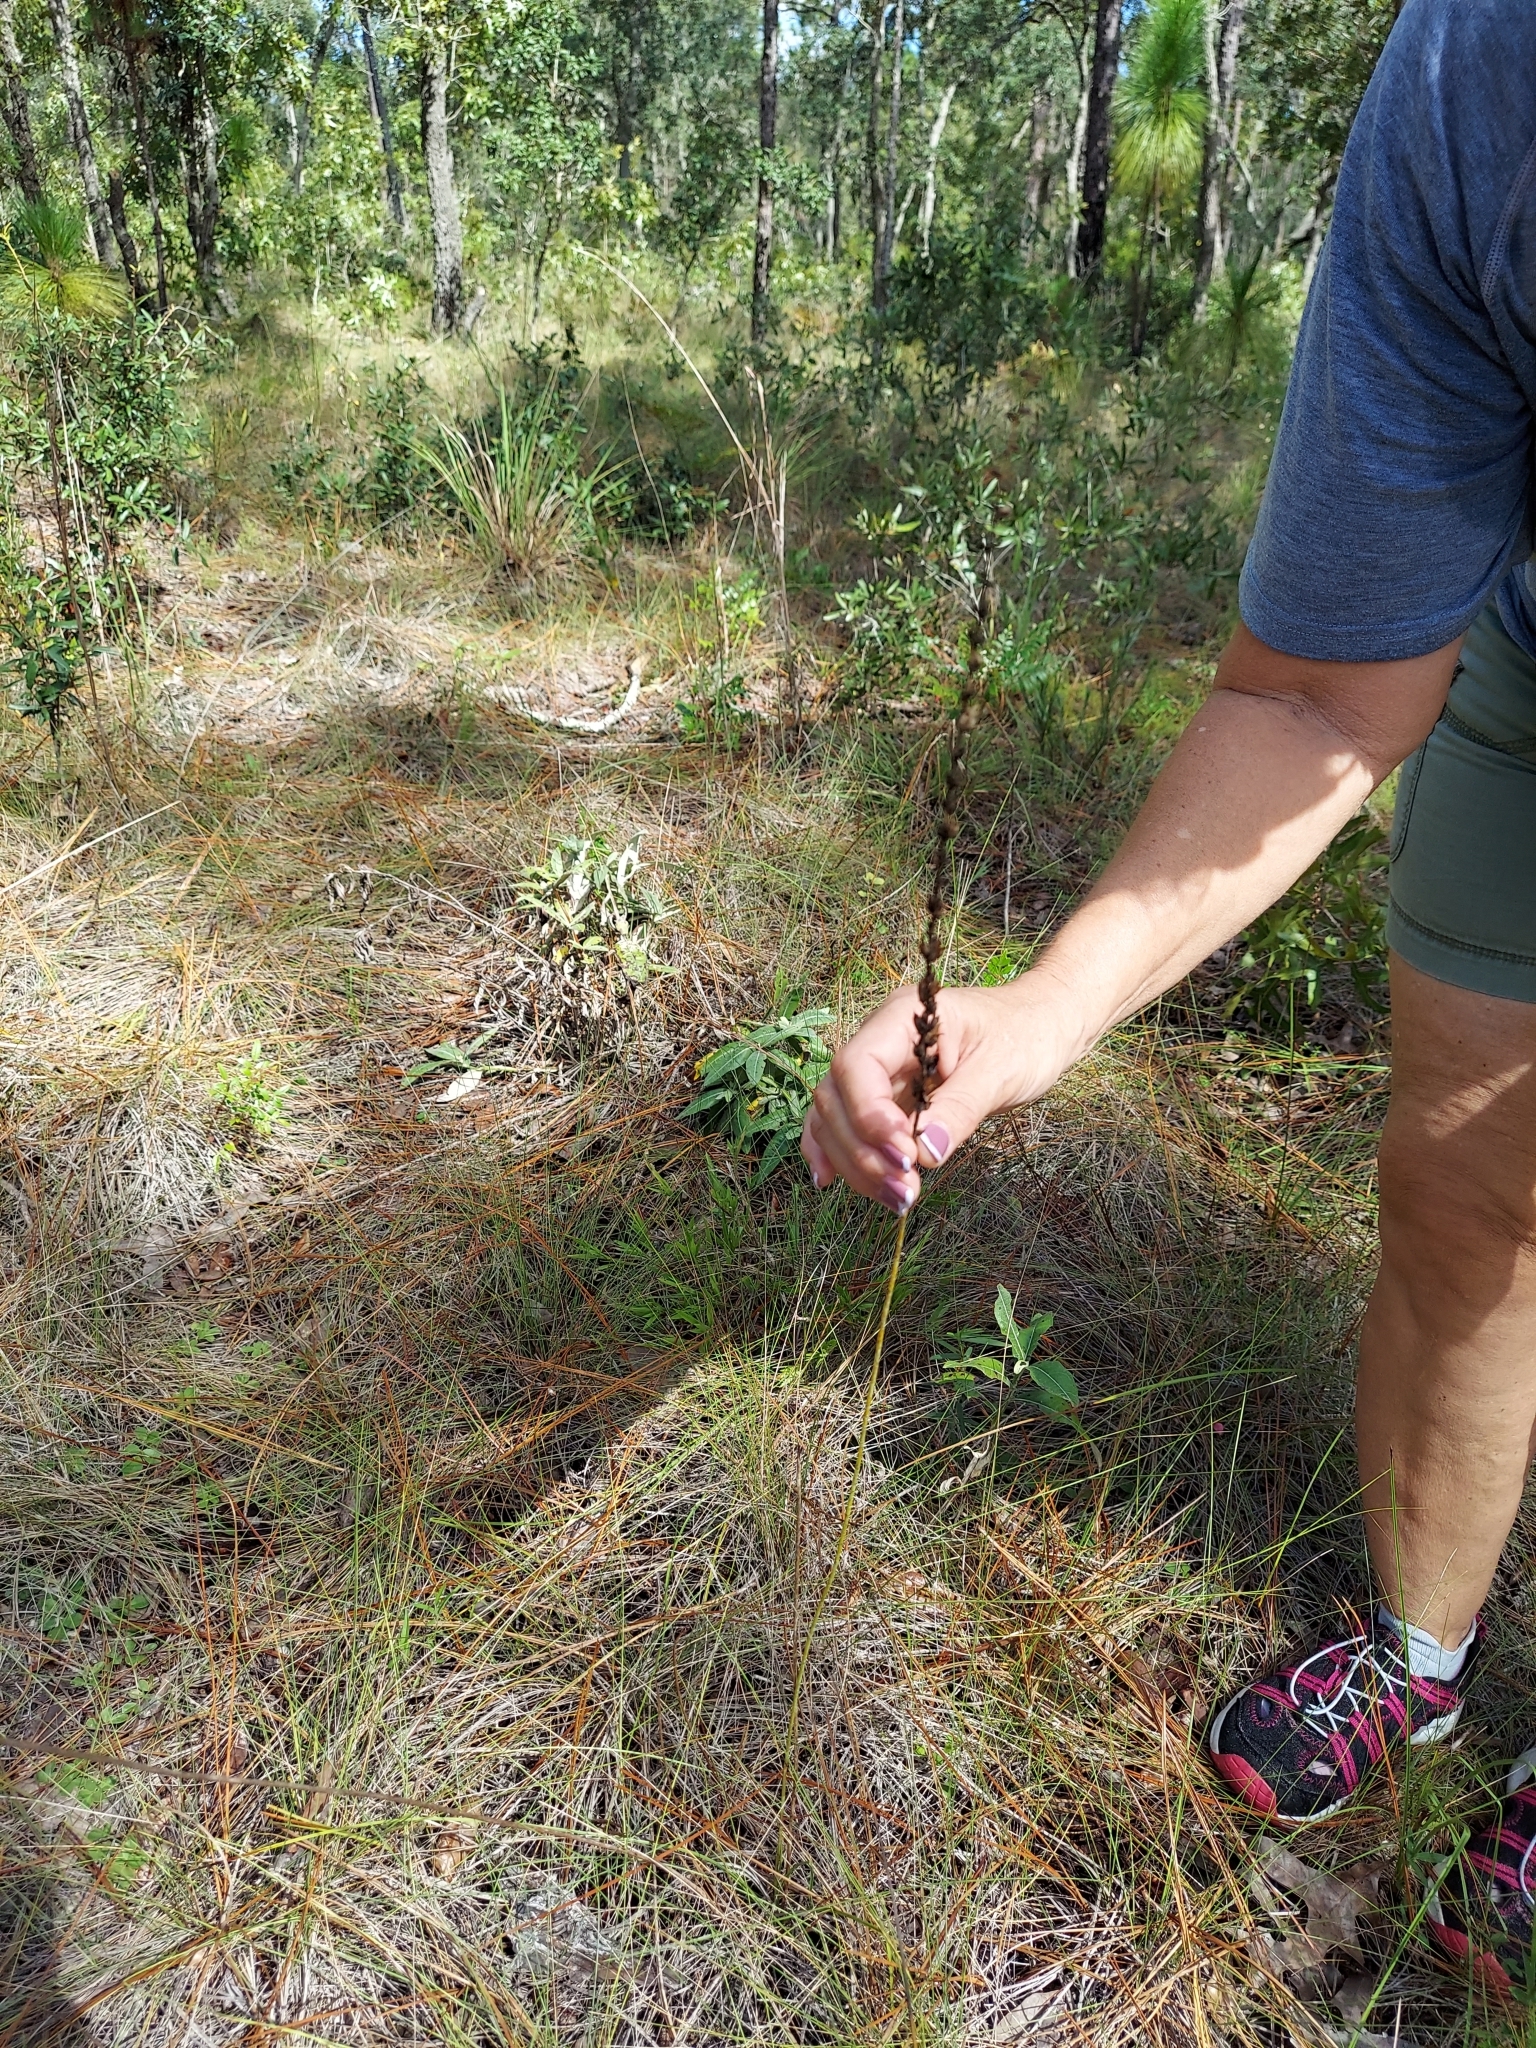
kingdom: Plantae
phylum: Tracheophyta
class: Liliopsida
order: Liliales
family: Melanthiaceae
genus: Schoenocaulon
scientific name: Schoenocaulon dubium
